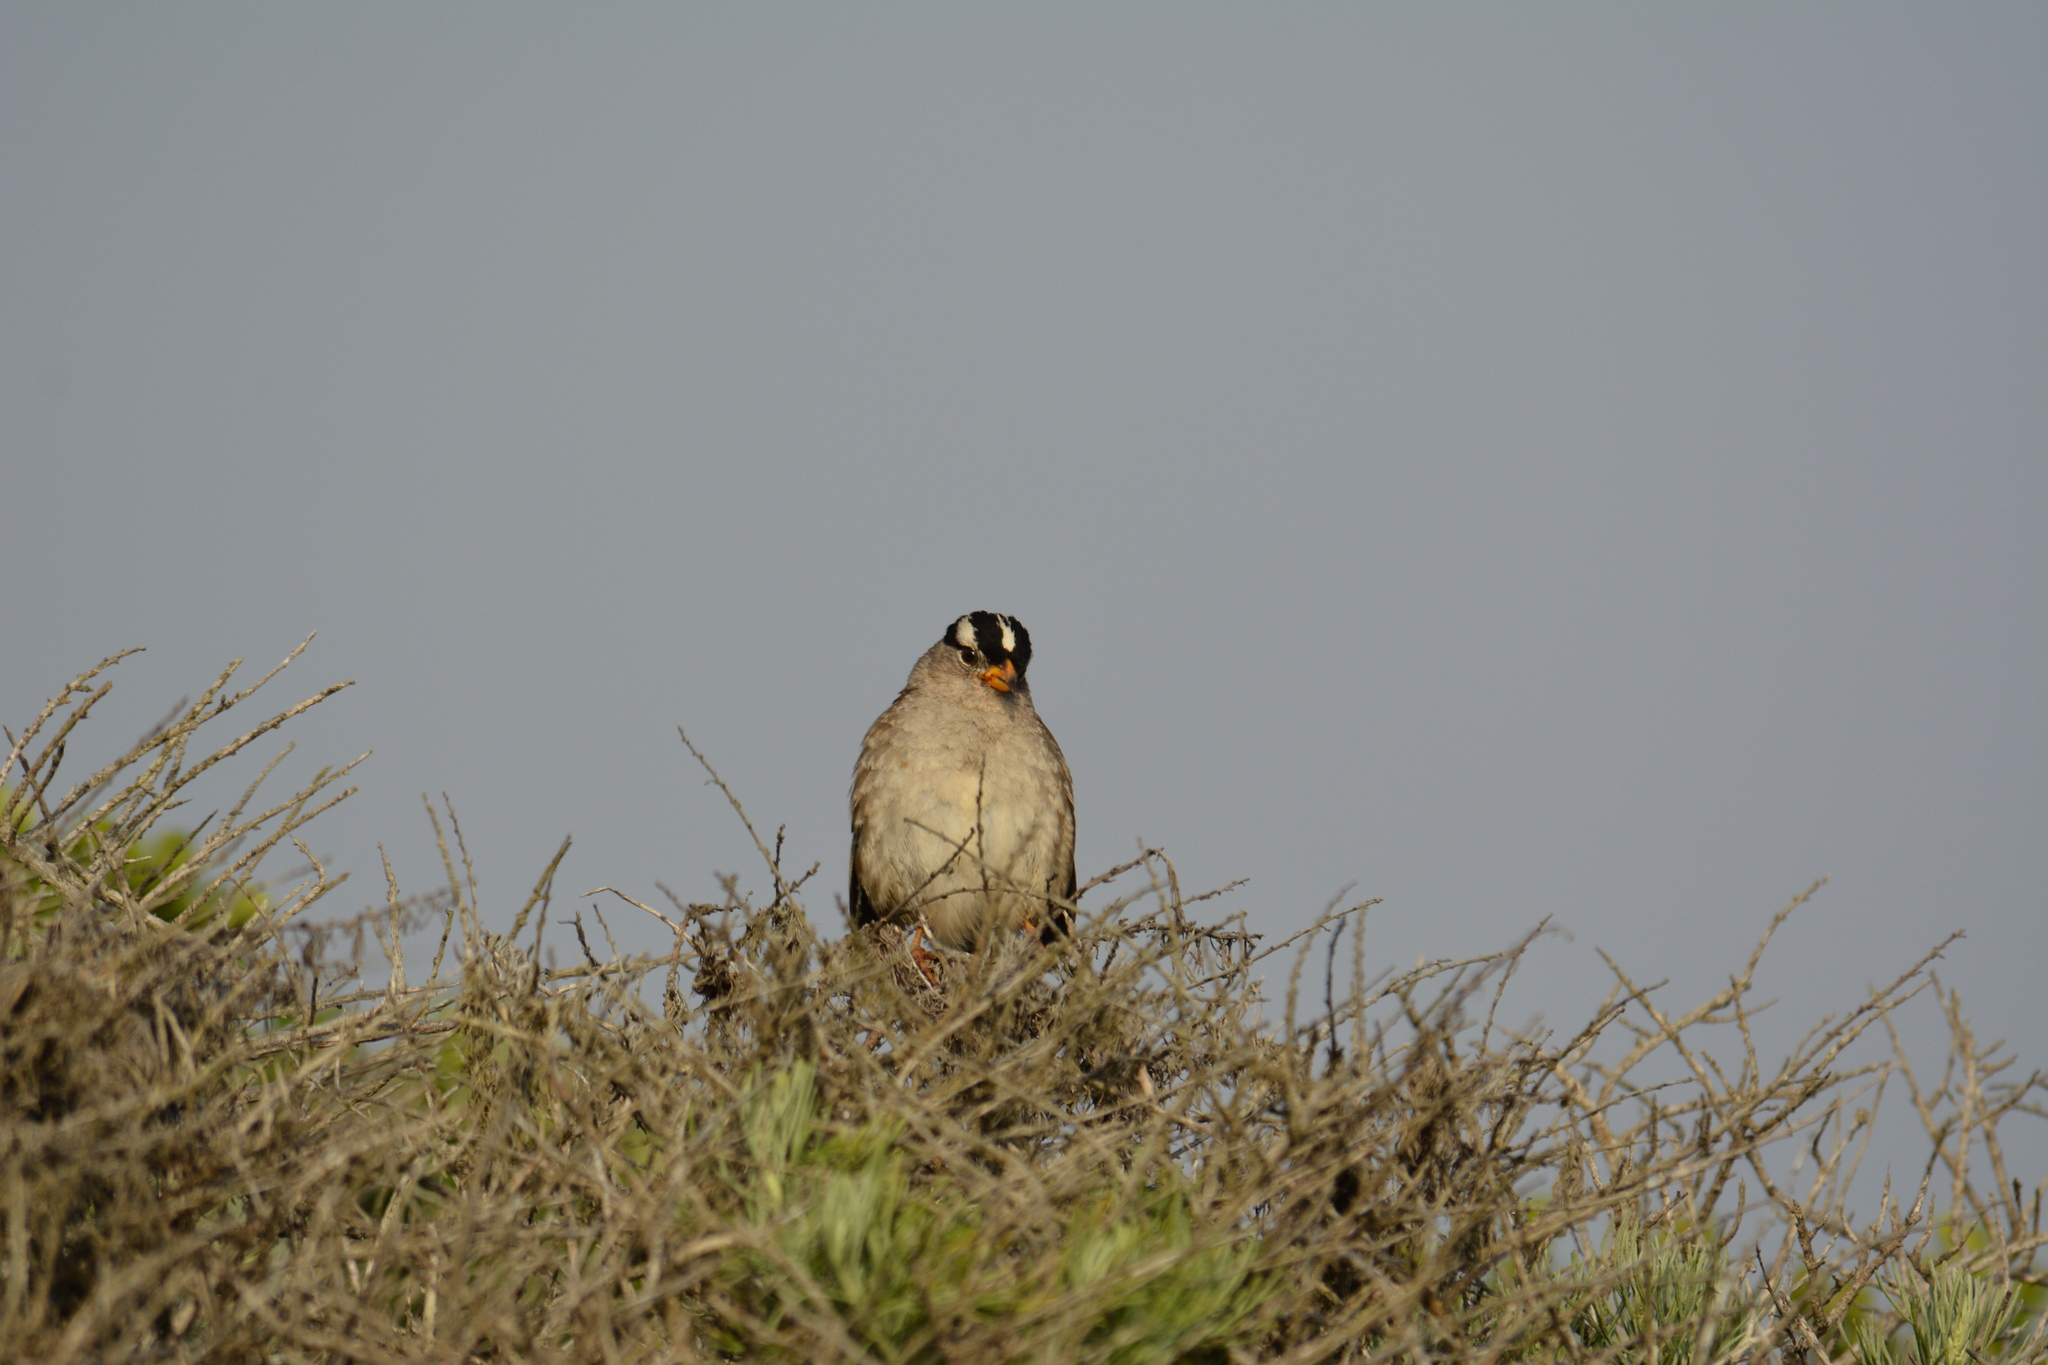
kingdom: Animalia
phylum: Chordata
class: Aves
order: Passeriformes
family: Passerellidae
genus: Zonotrichia
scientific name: Zonotrichia leucophrys
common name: White-crowned sparrow
